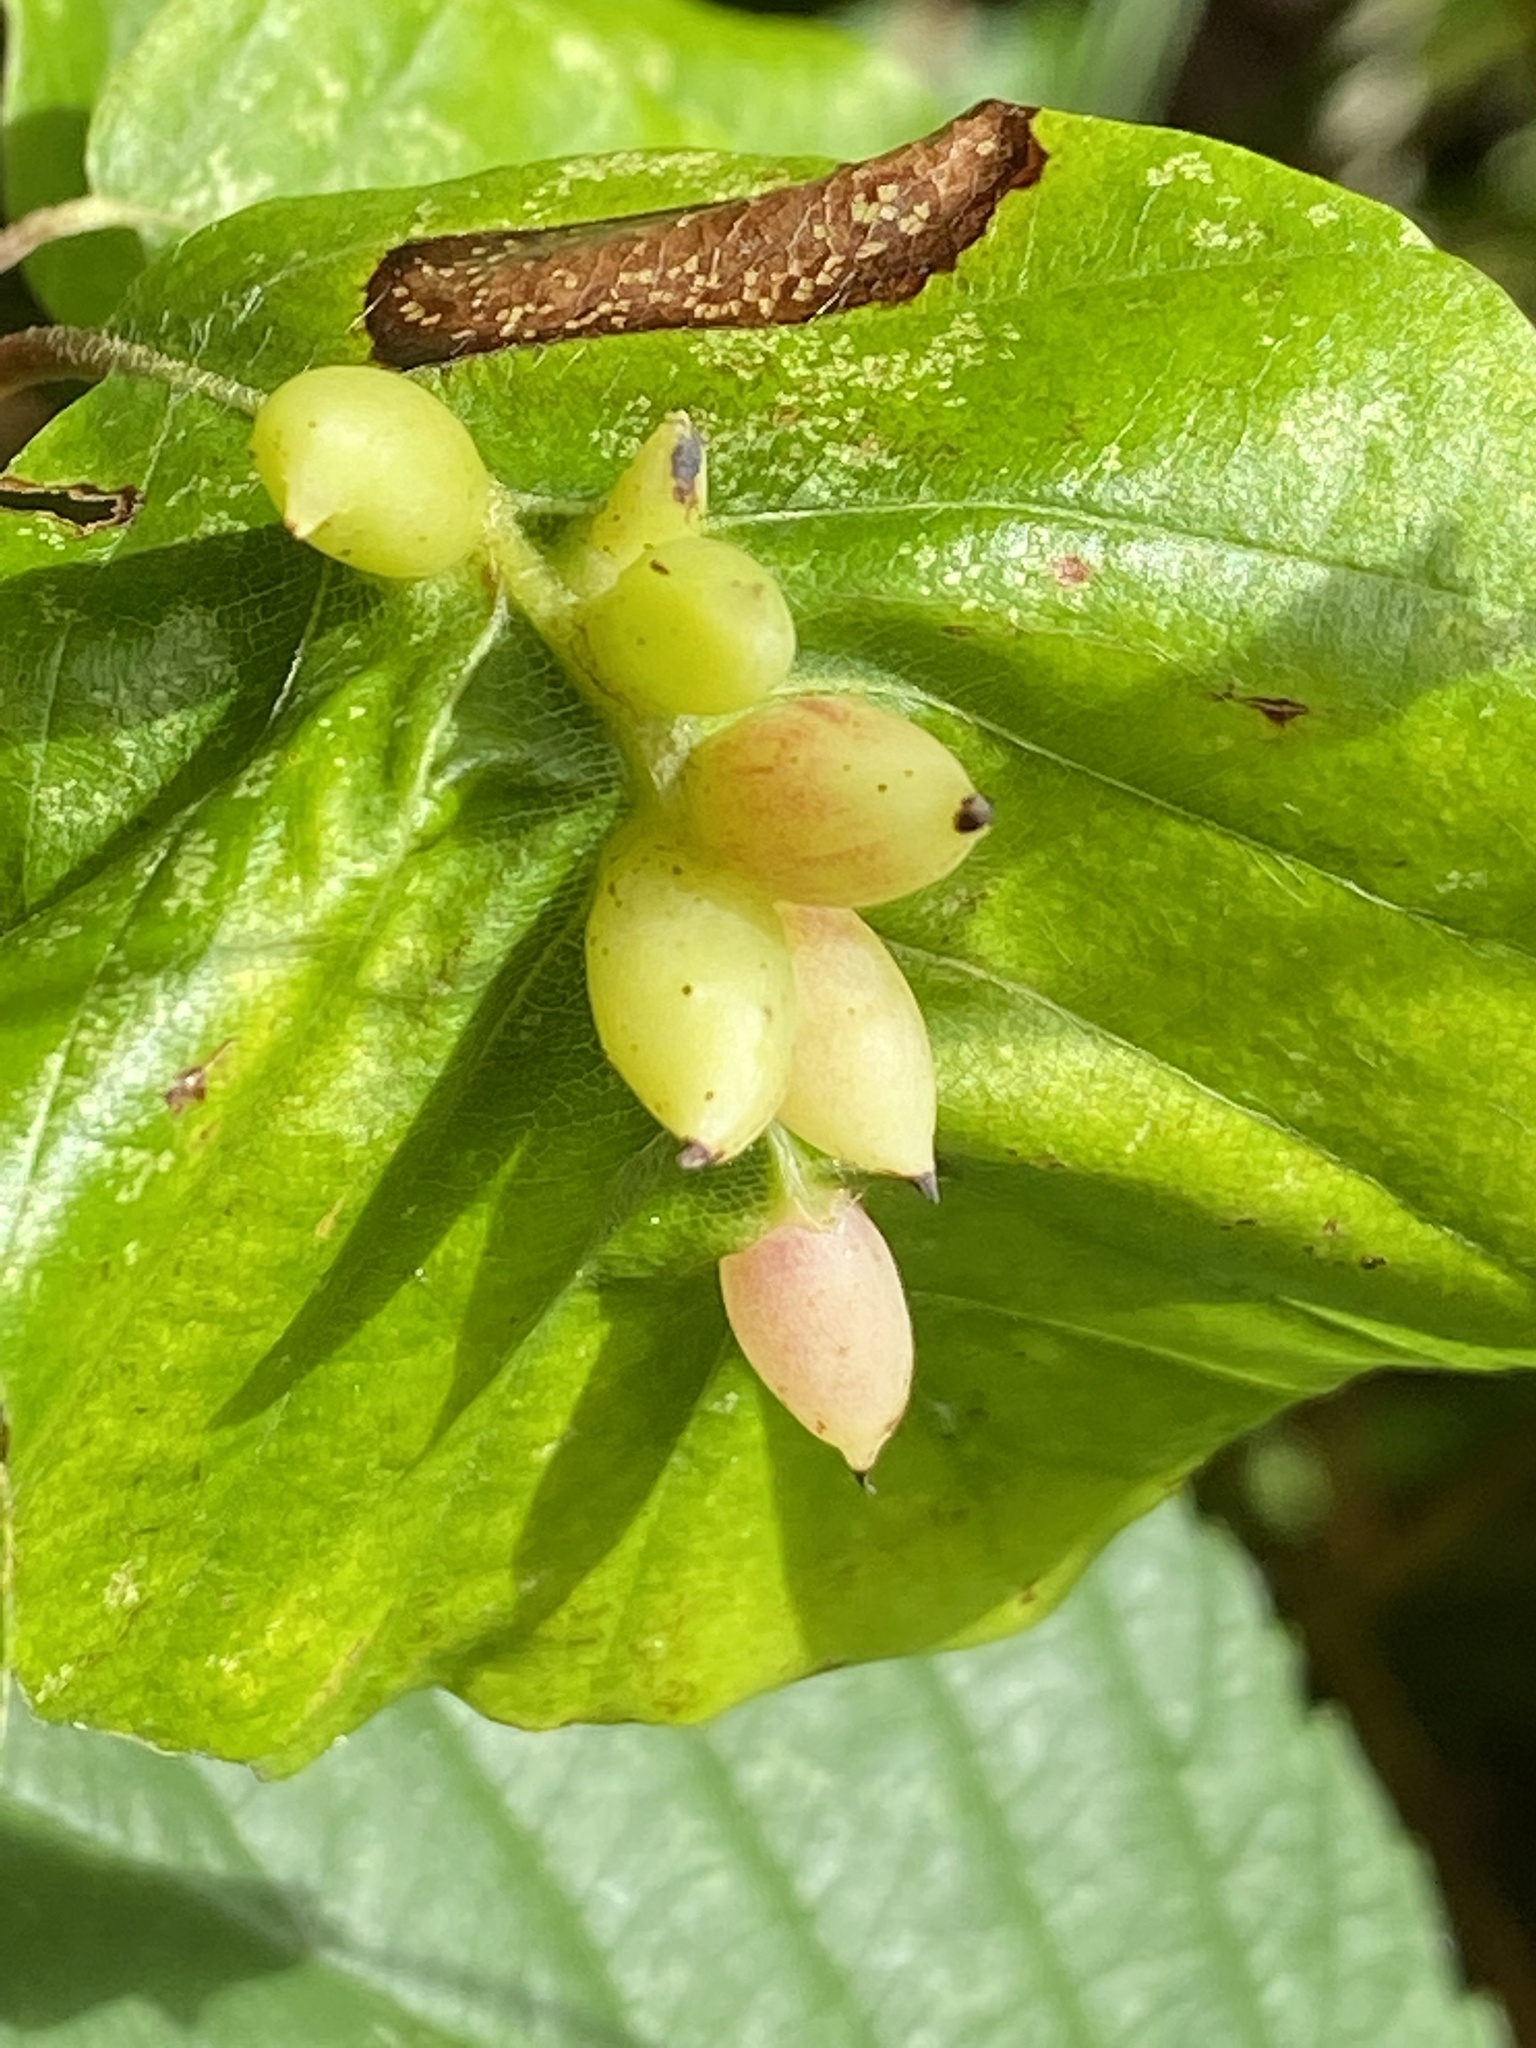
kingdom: Animalia
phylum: Arthropoda
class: Insecta
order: Diptera
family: Cecidomyiidae
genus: Mikiola
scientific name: Mikiola fagi
